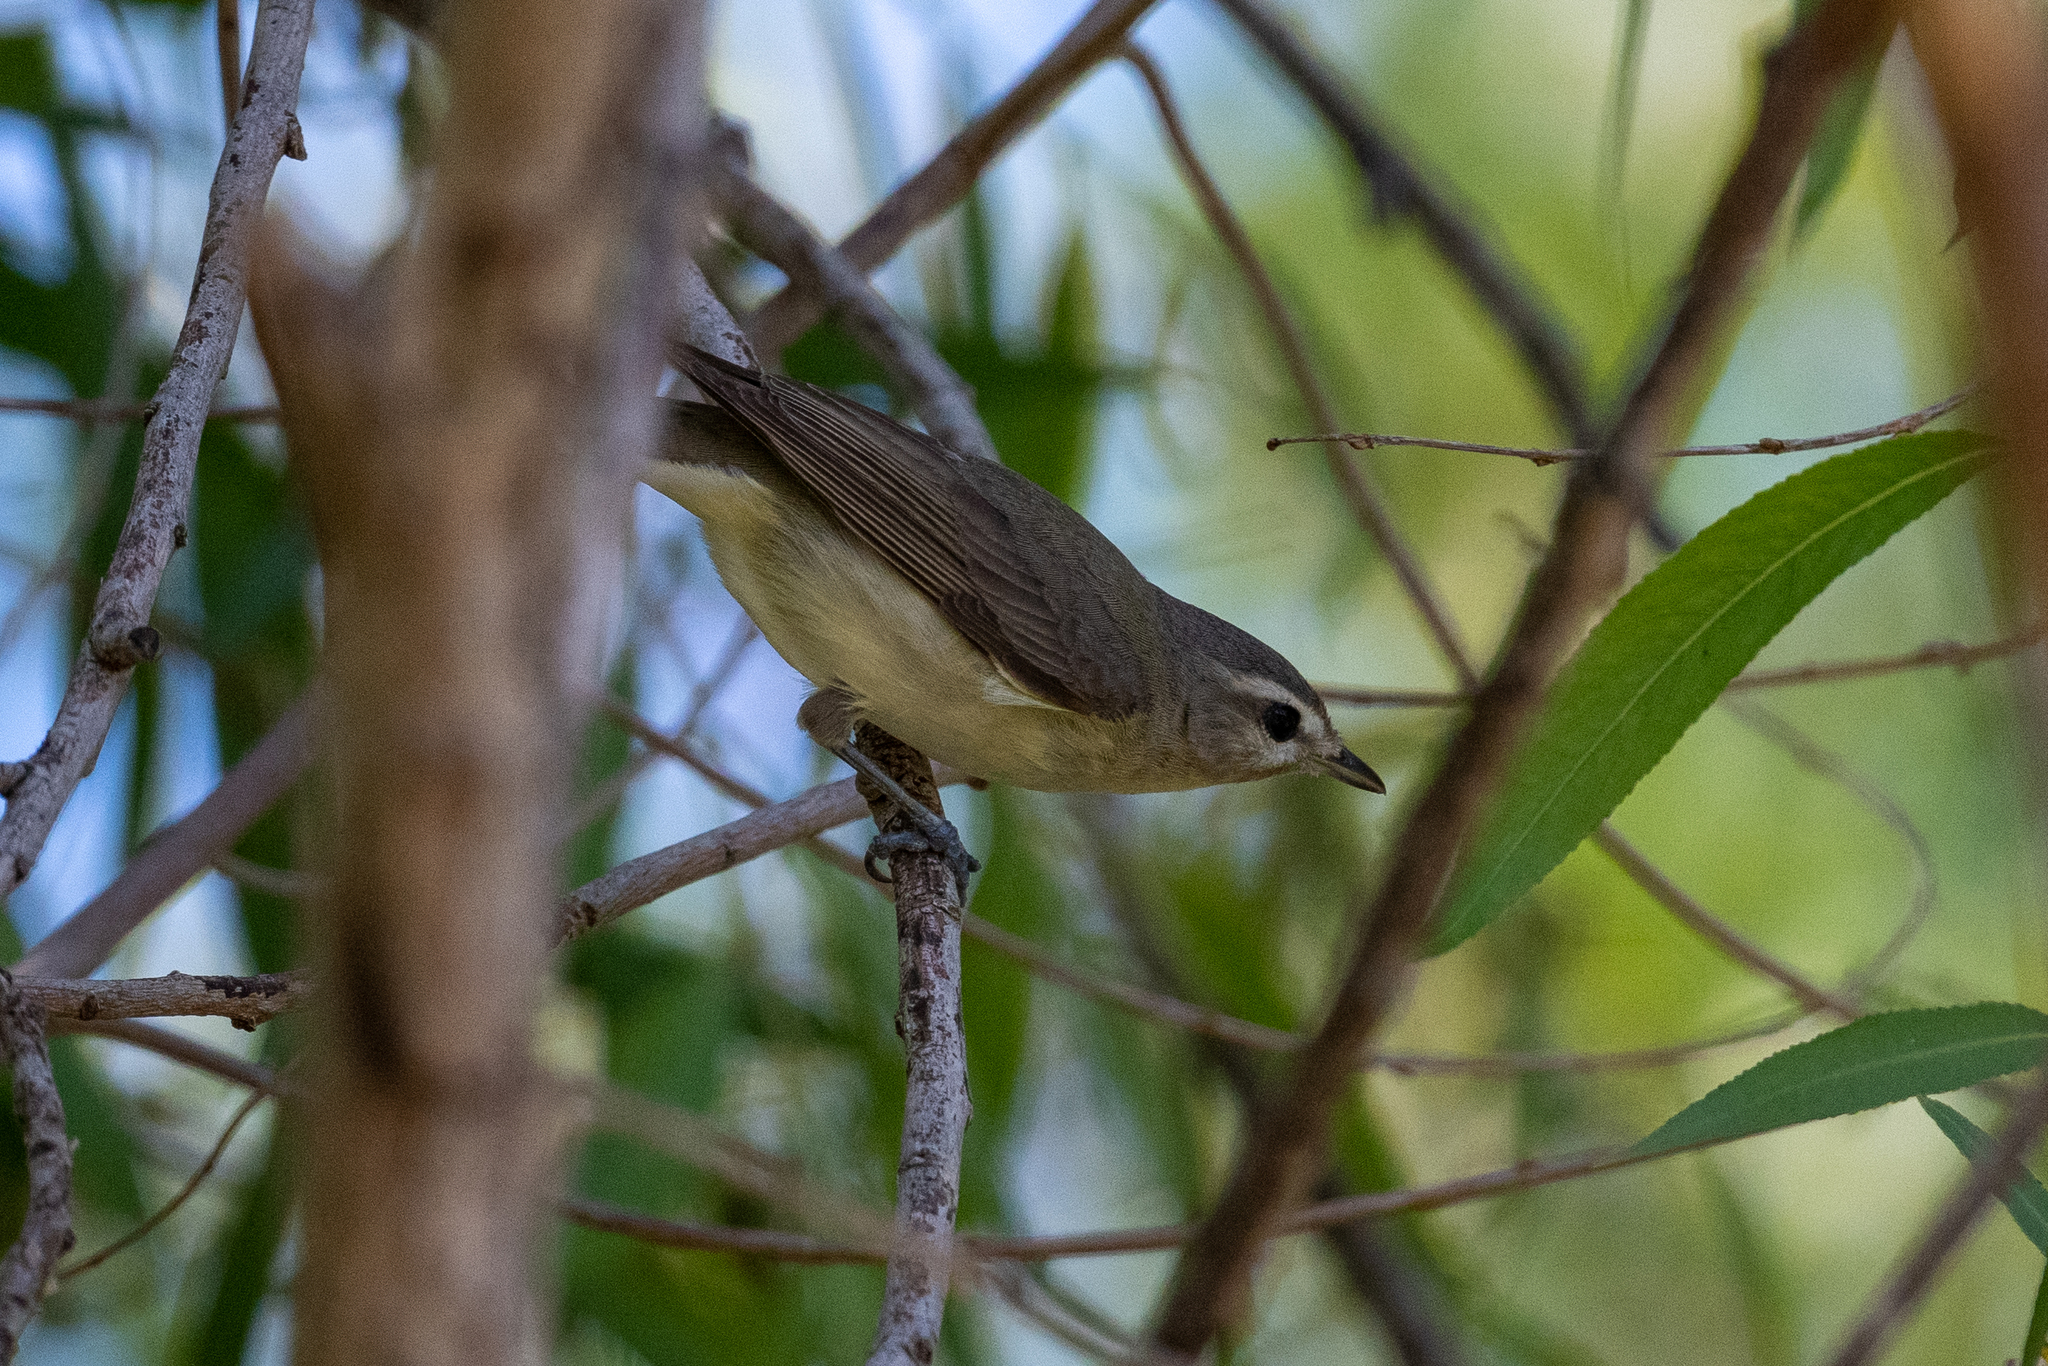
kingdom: Animalia
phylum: Chordata
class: Aves
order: Passeriformes
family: Vireonidae
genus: Vireo
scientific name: Vireo gilvus
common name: Warbling vireo
